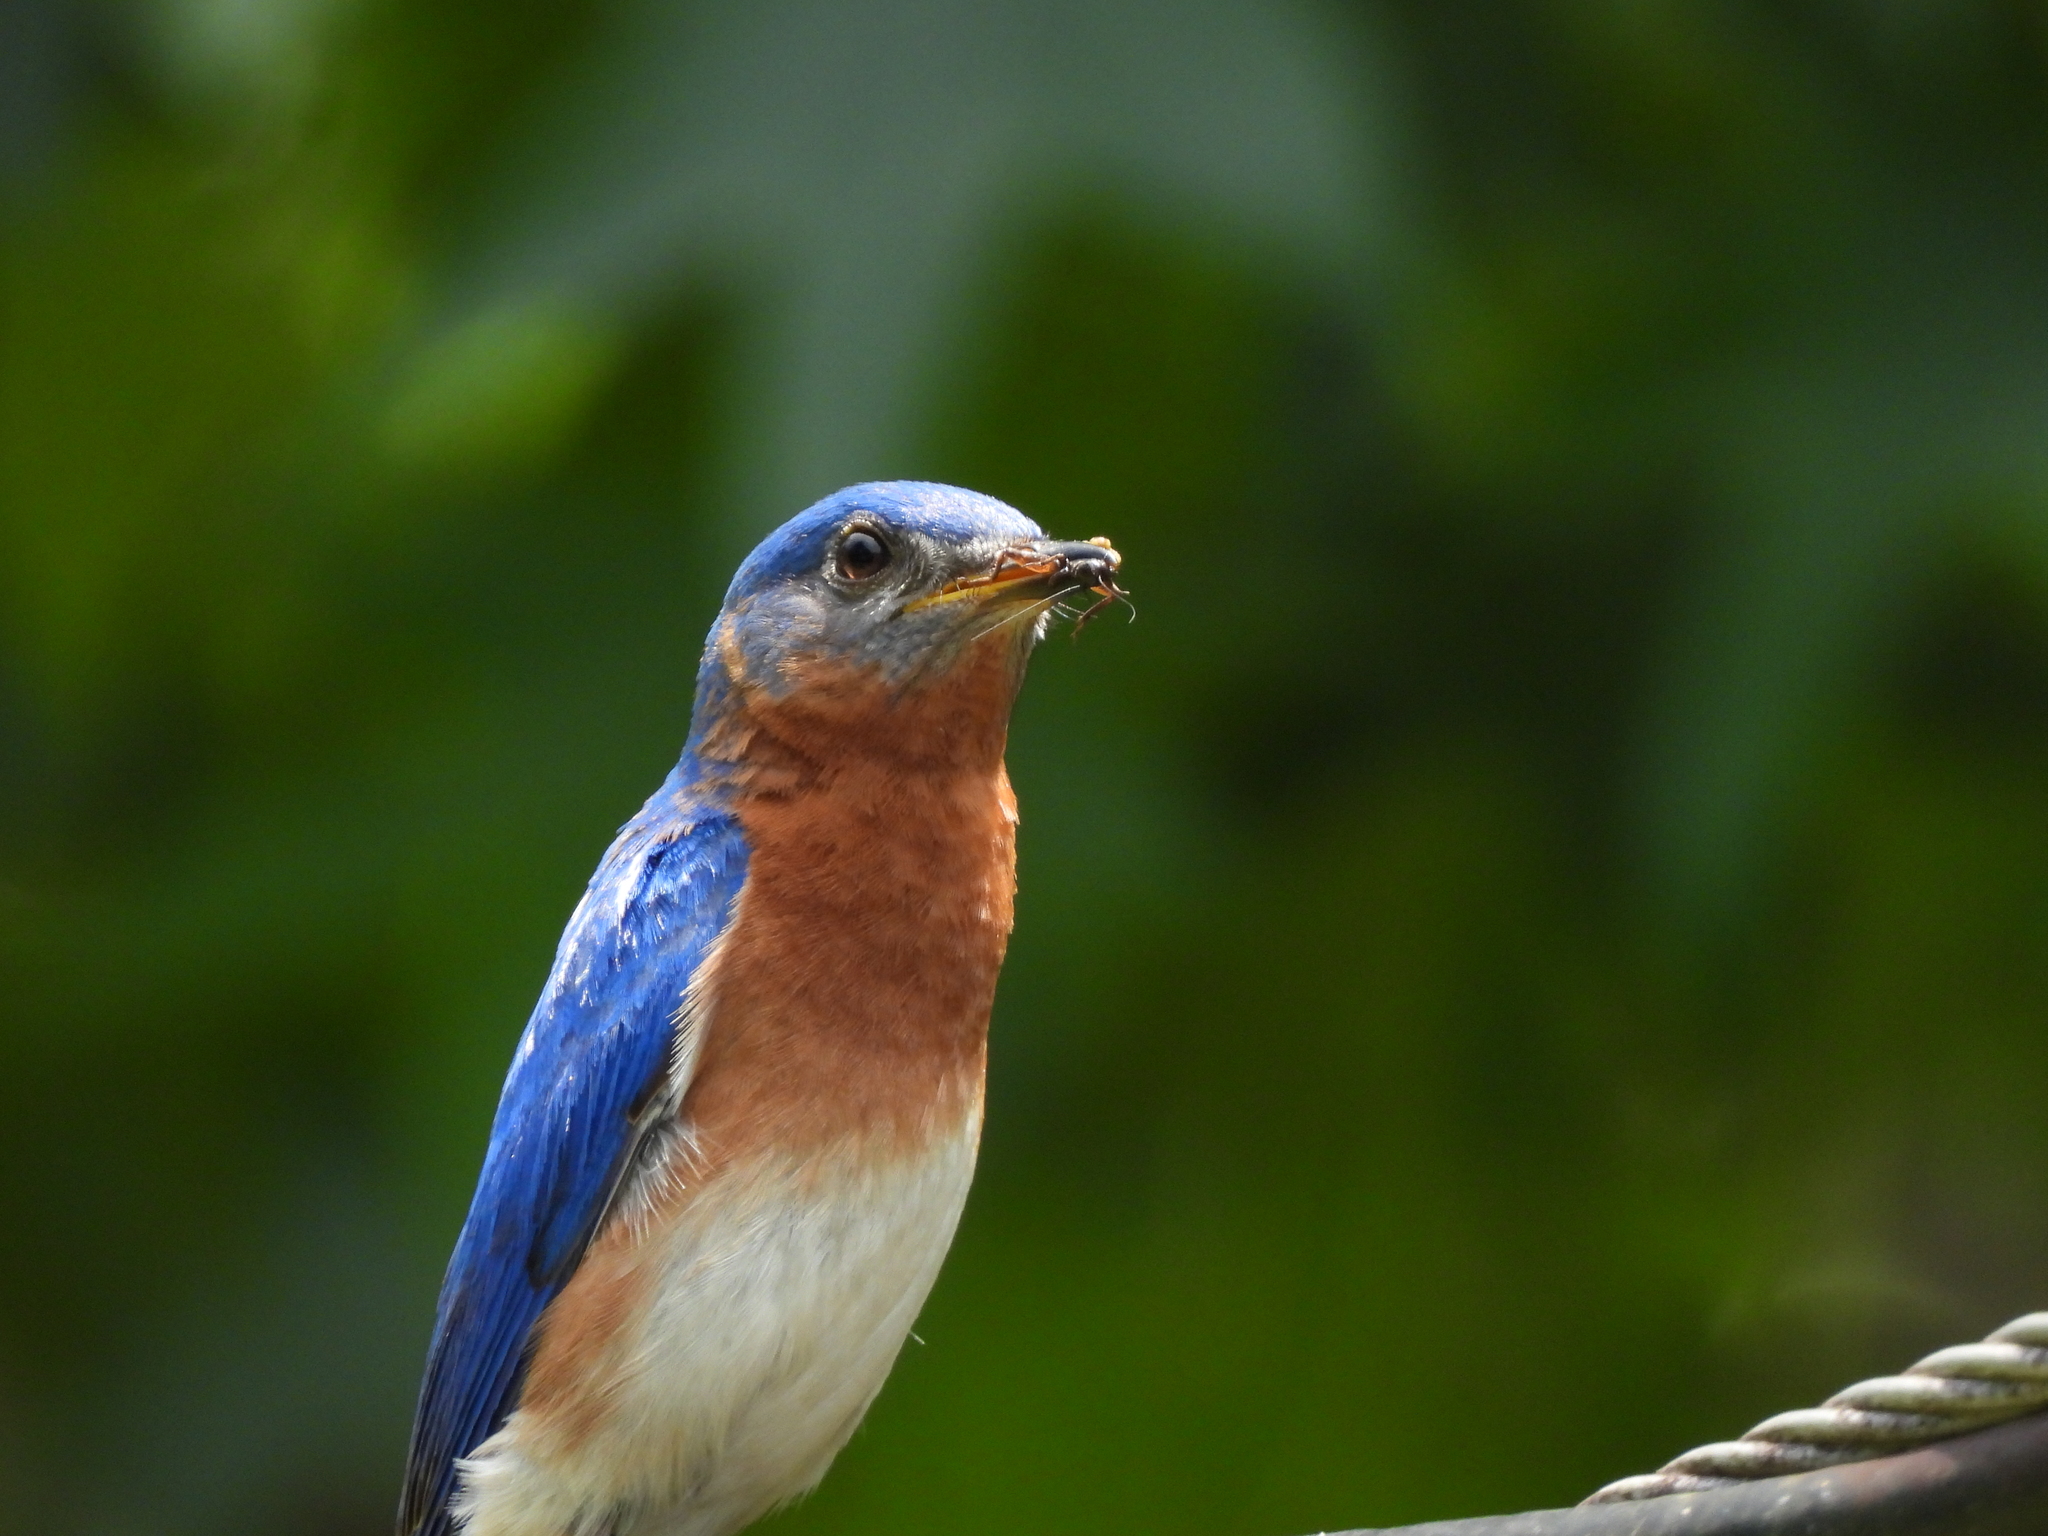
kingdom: Animalia
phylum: Chordata
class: Aves
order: Passeriformes
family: Turdidae
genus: Sialia
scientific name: Sialia sialis
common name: Eastern bluebird
